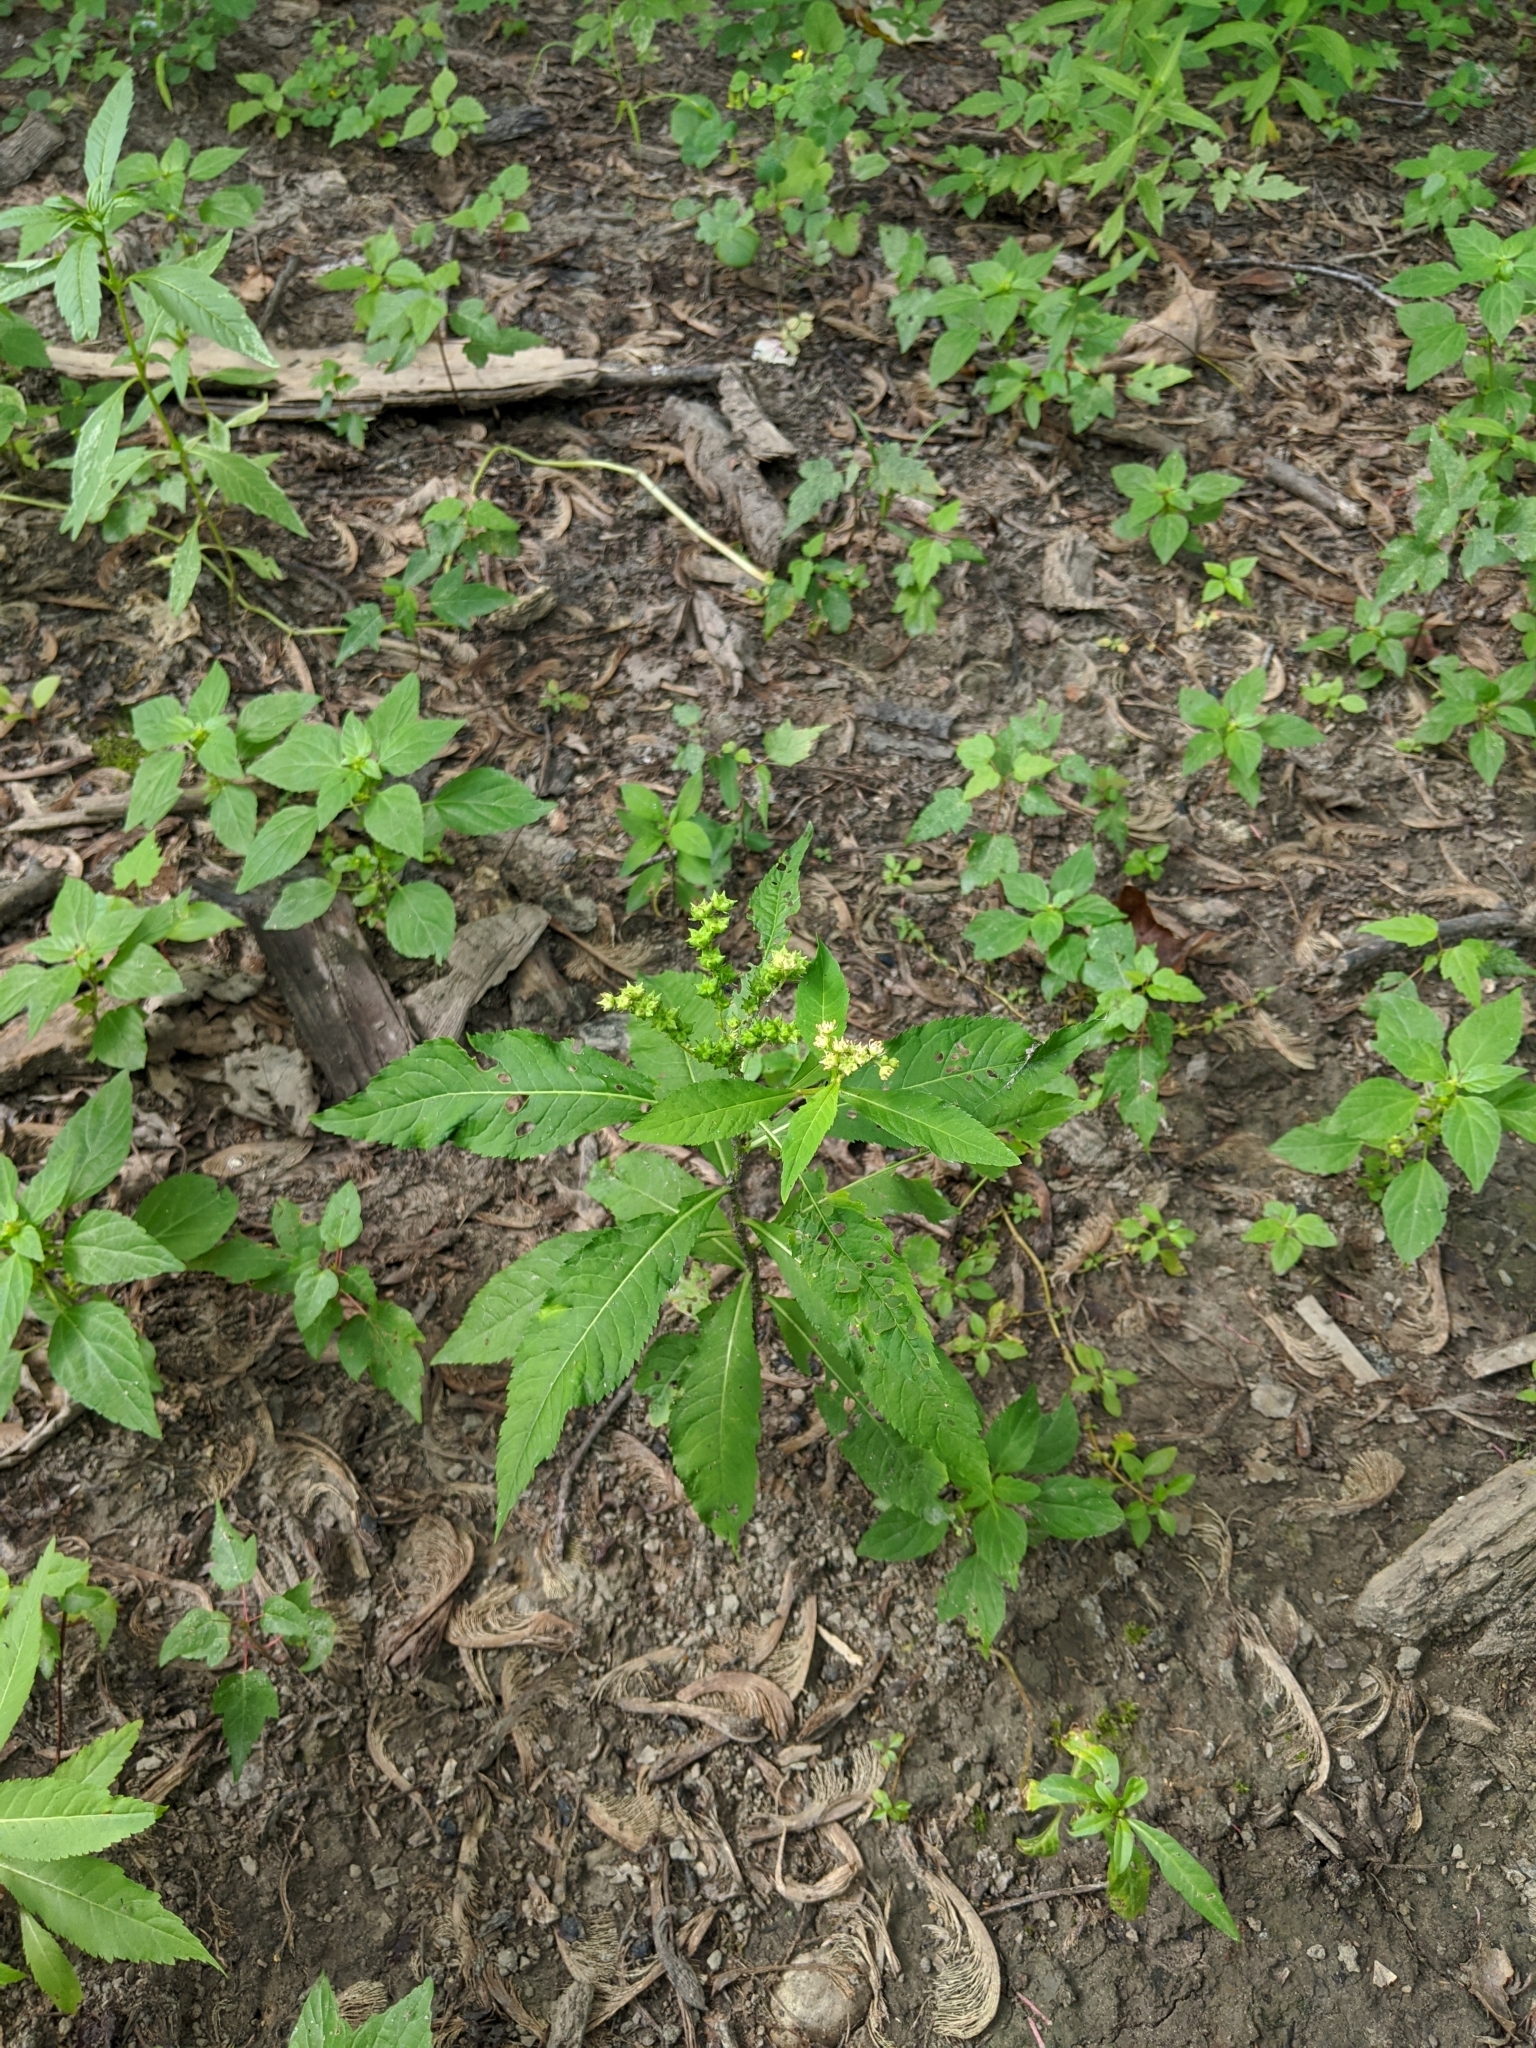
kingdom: Plantae
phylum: Tracheophyta
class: Magnoliopsida
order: Saxifragales
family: Penthoraceae
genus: Penthorum
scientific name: Penthorum sedoides
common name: Ditch stonecrop
